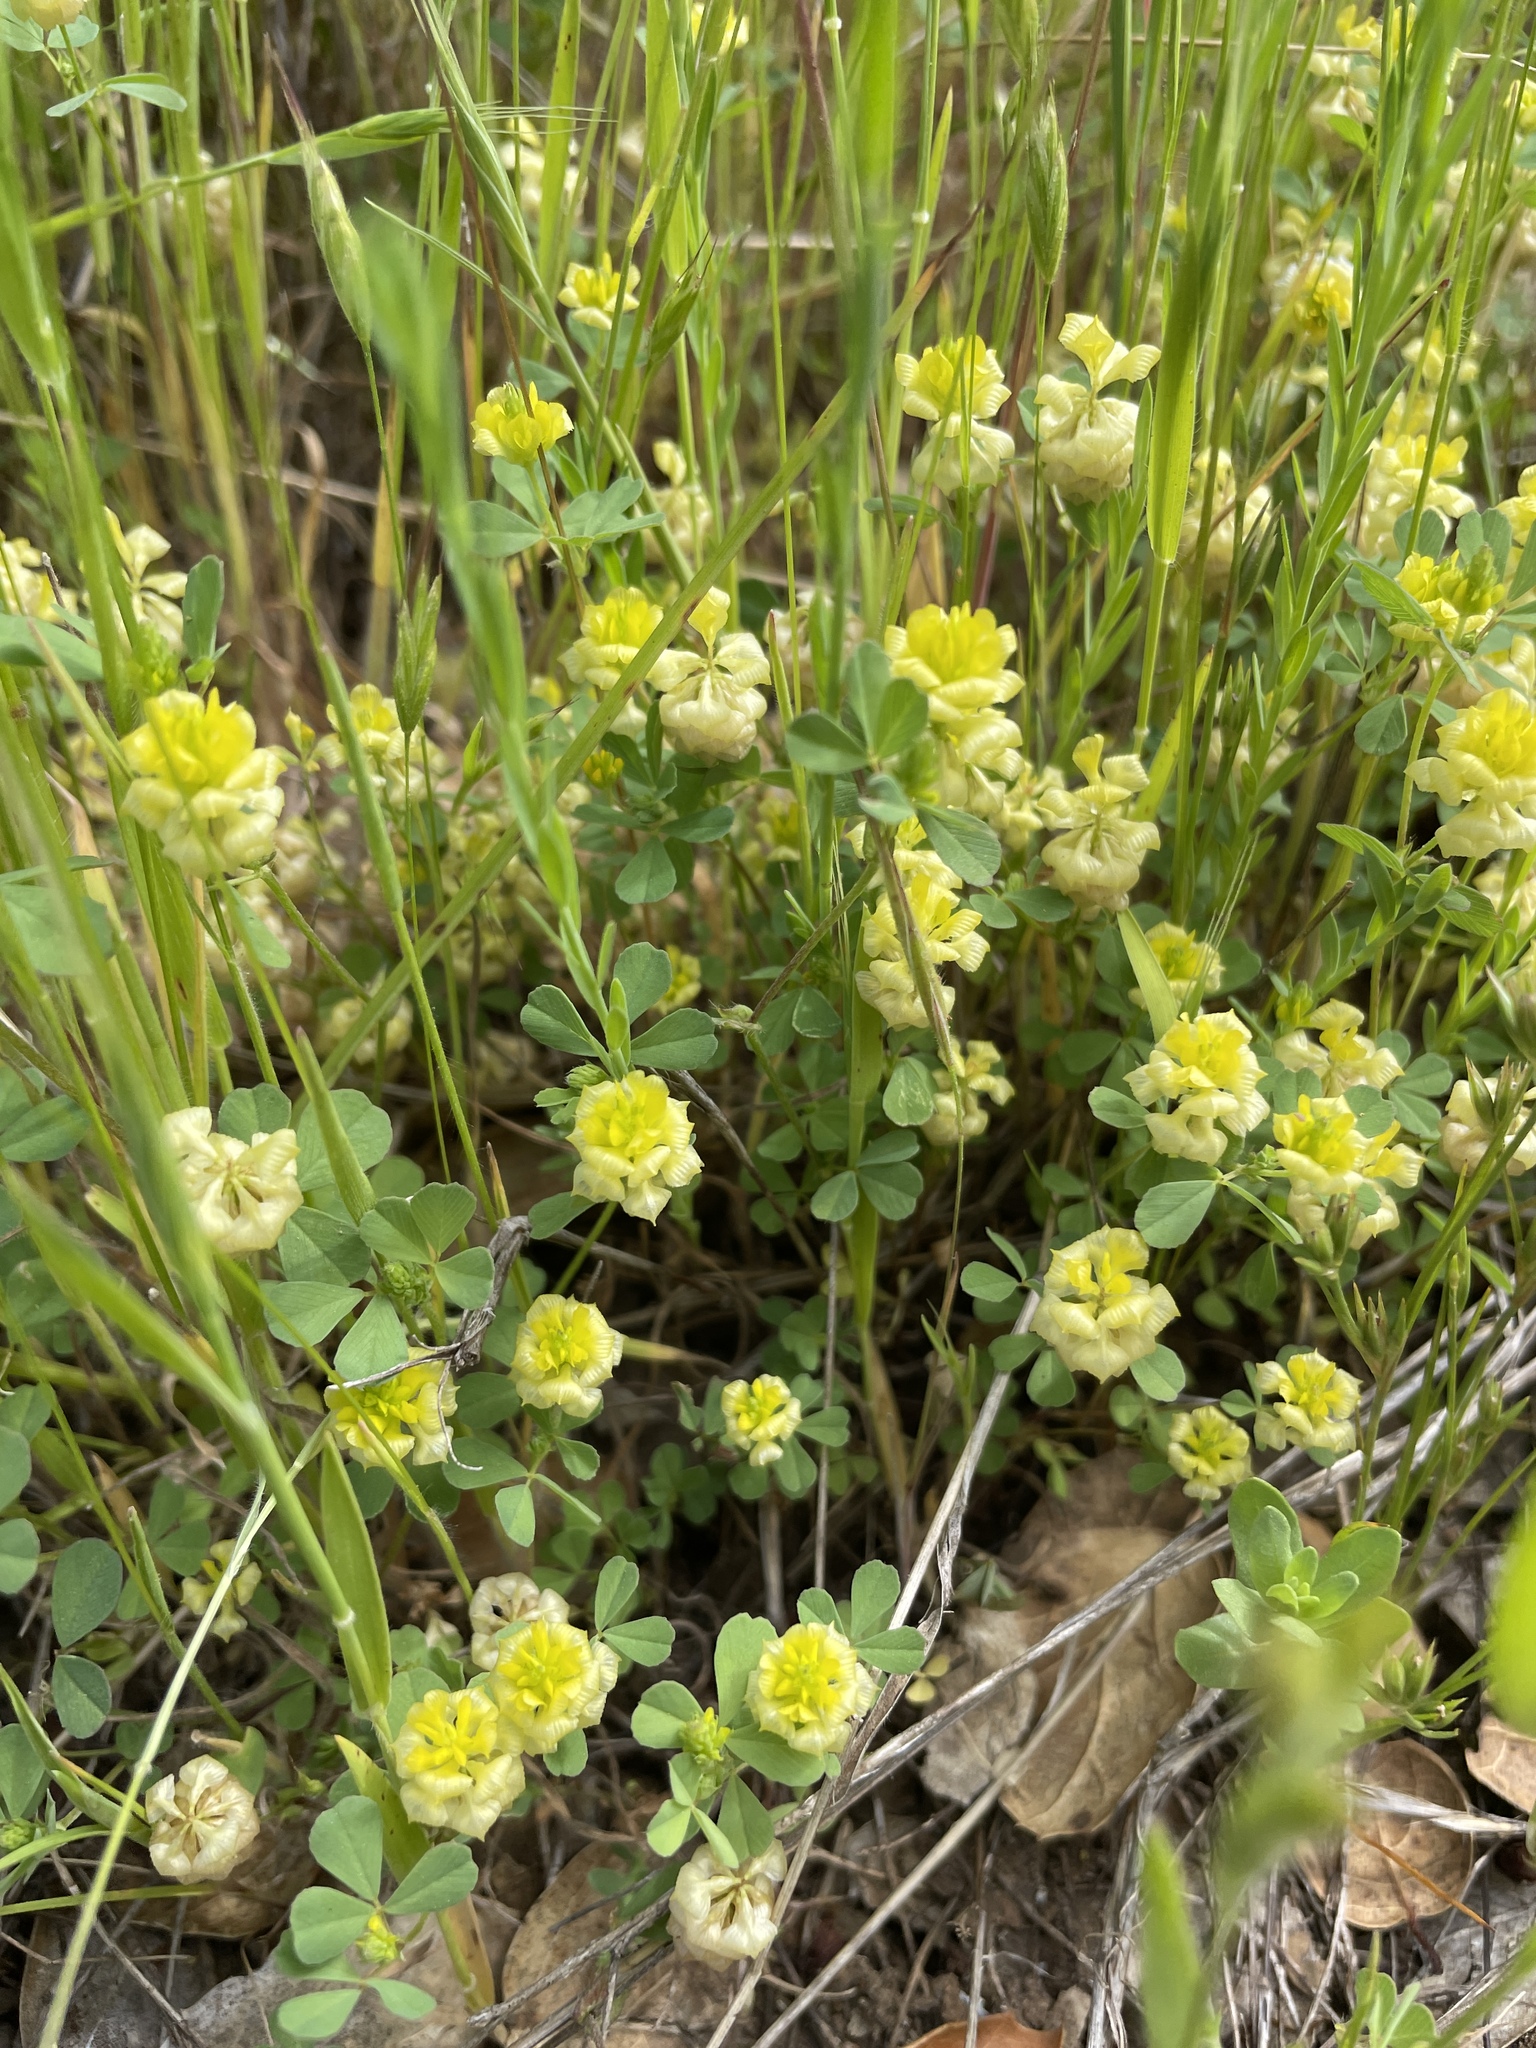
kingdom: Plantae
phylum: Tracheophyta
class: Magnoliopsida
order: Fabales
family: Fabaceae
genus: Trifolium
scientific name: Trifolium campestre
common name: Field clover
